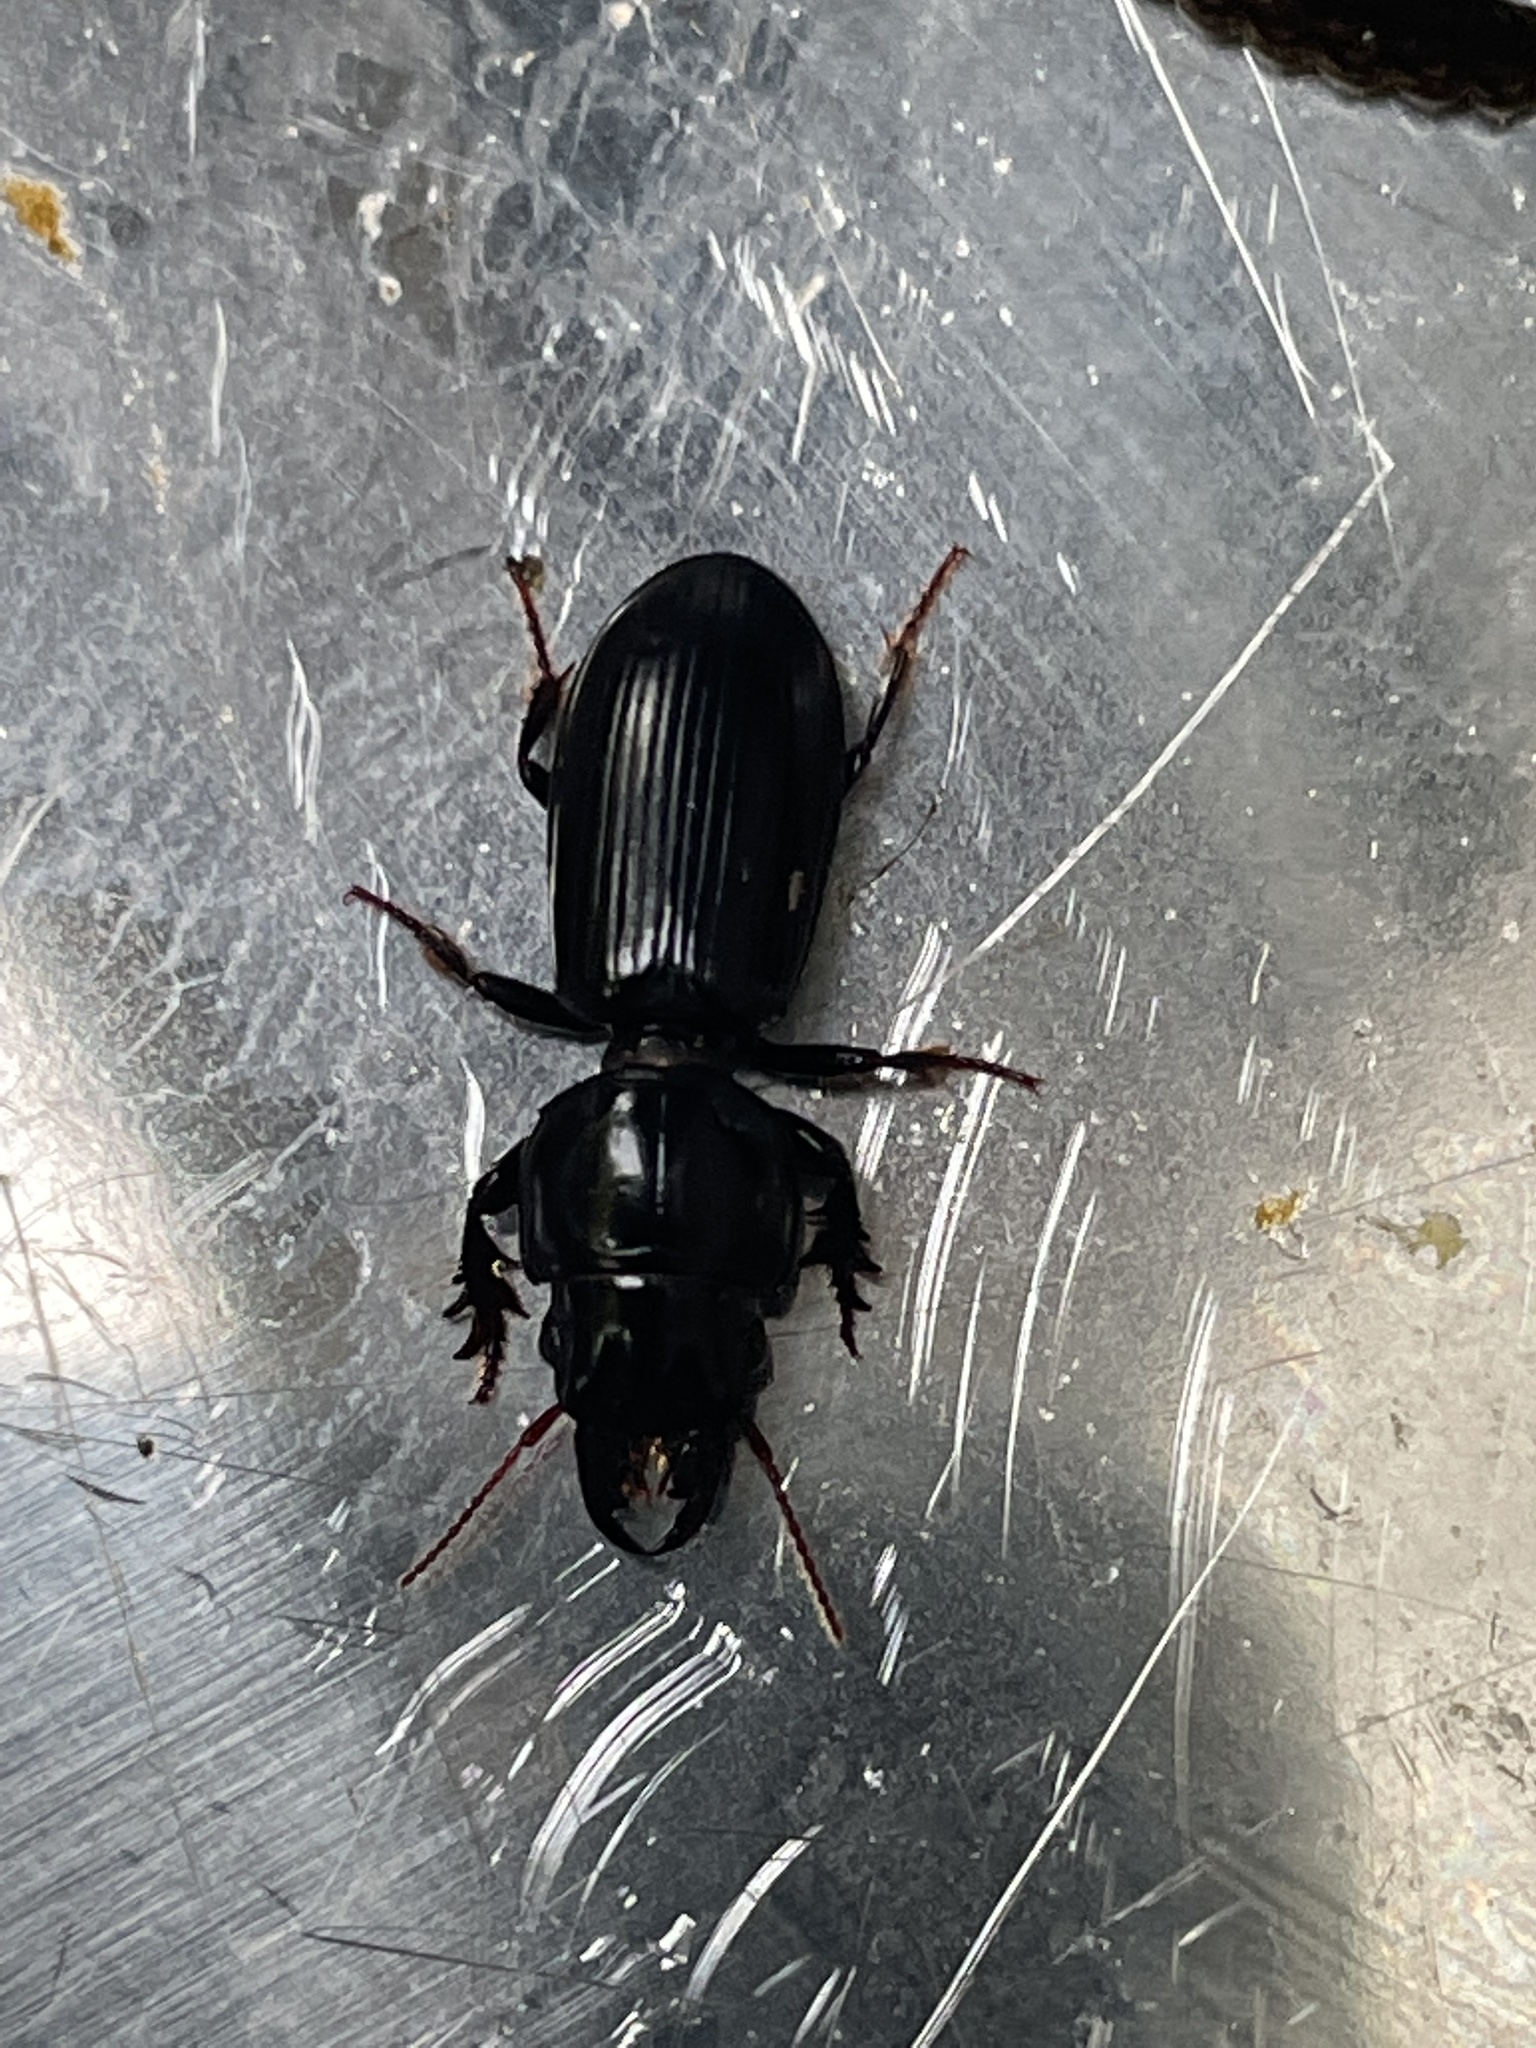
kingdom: Animalia
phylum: Arthropoda
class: Insecta
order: Coleoptera
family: Carabidae
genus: Scarites
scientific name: Scarites subterraneus
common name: Big-headed ground beetle
